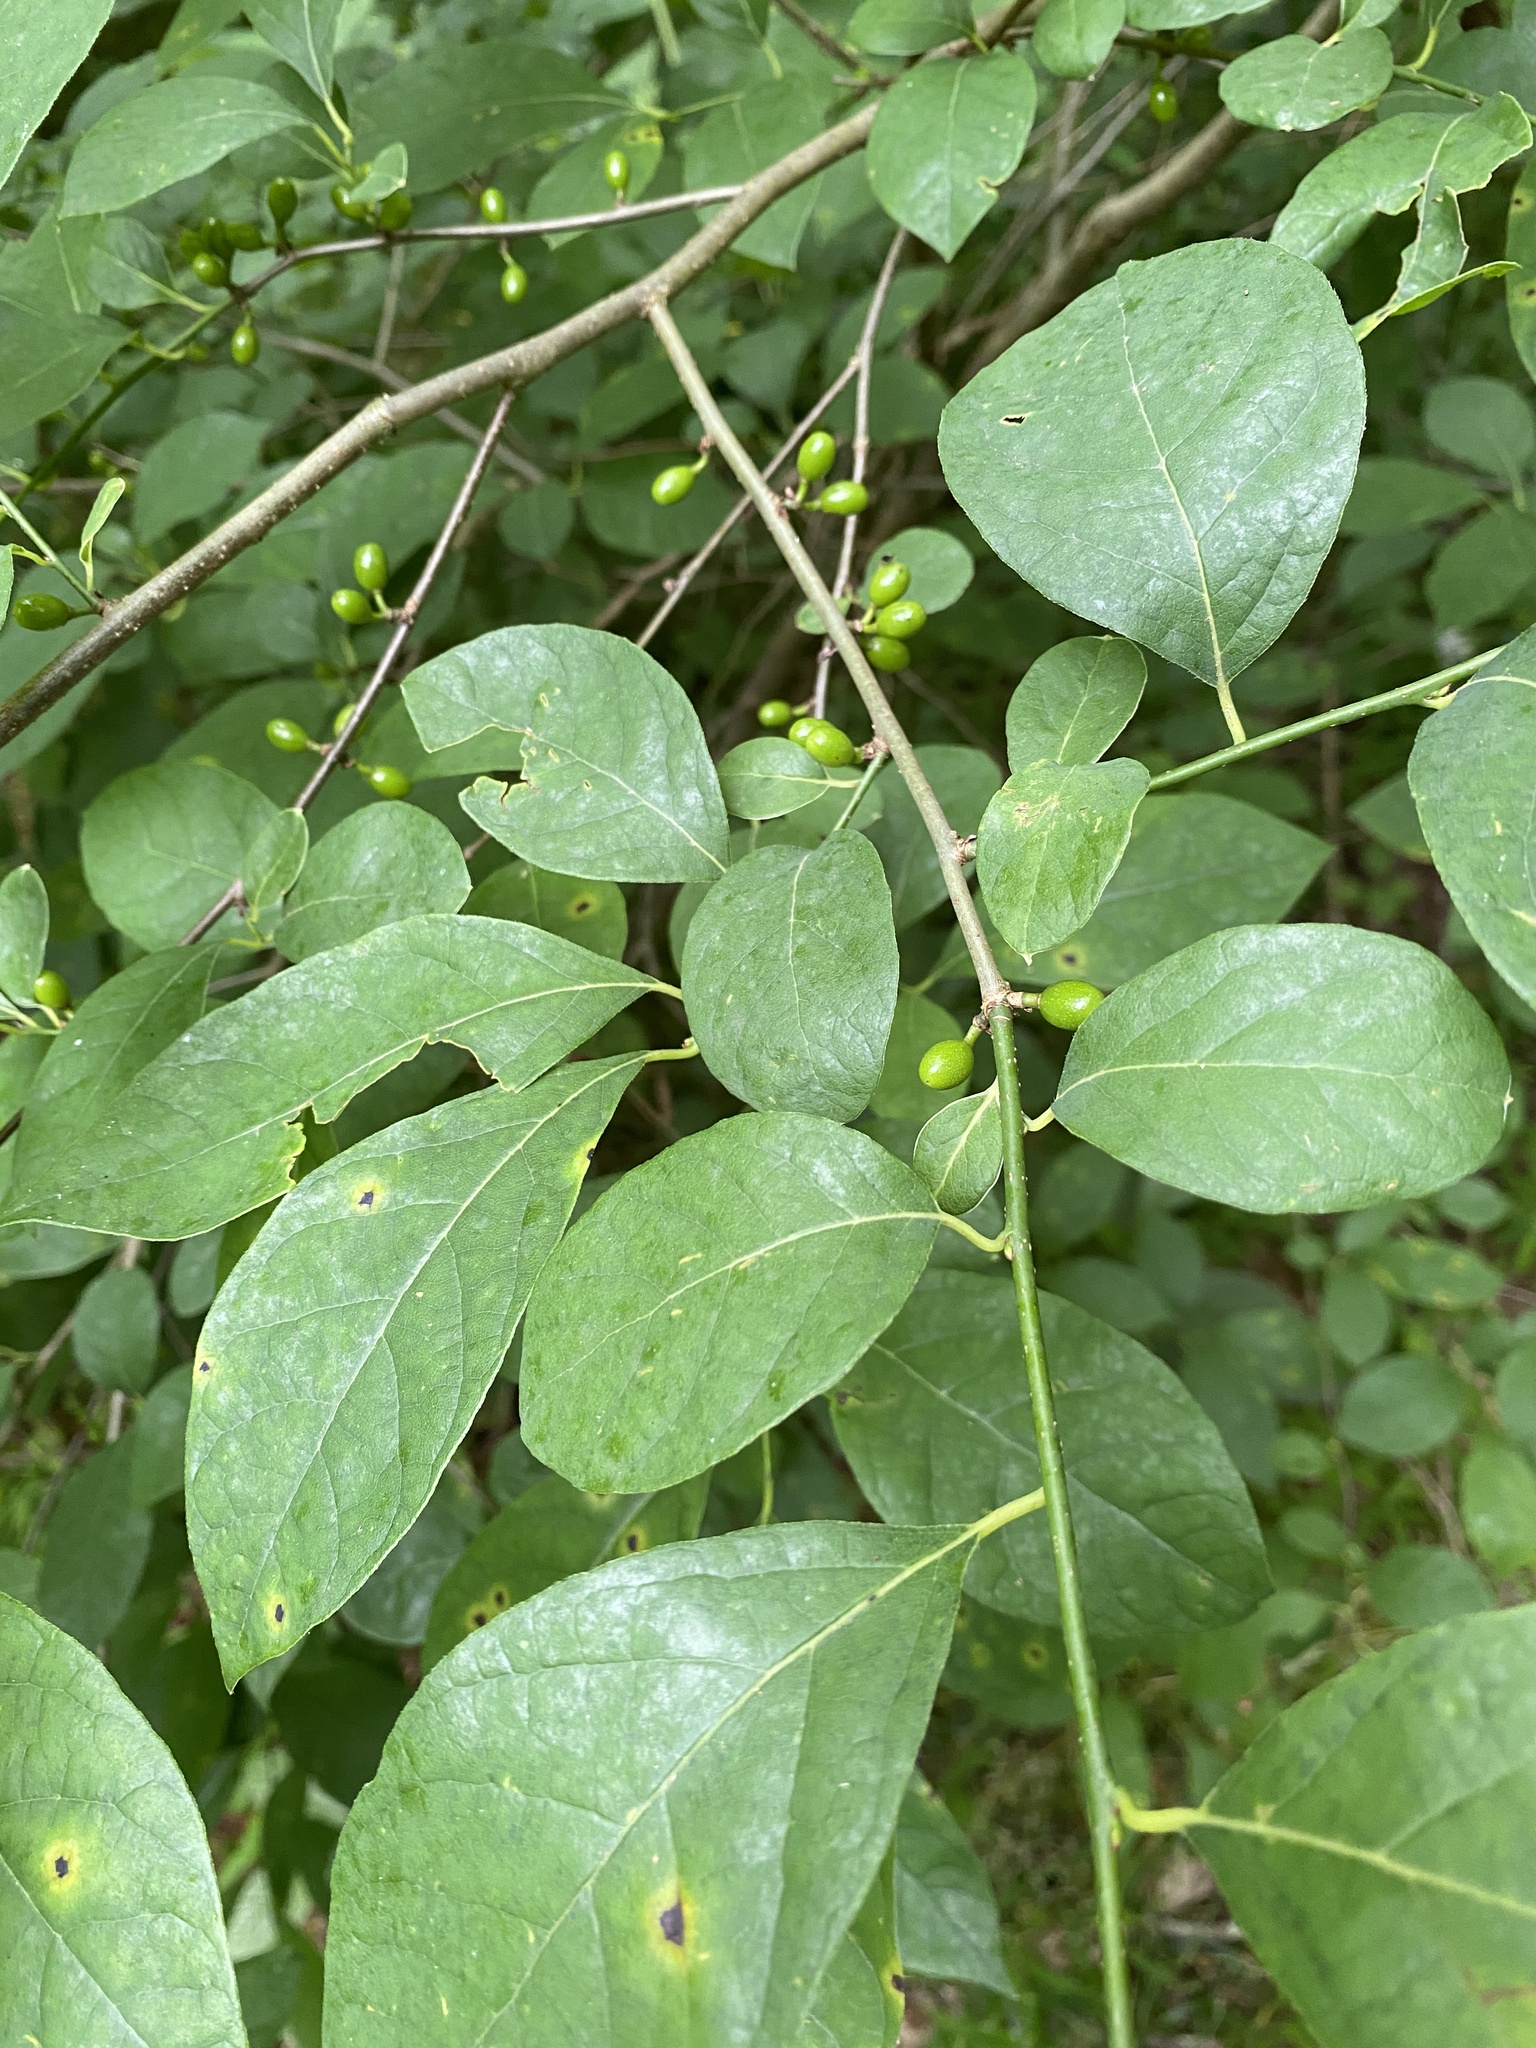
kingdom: Plantae
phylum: Tracheophyta
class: Magnoliopsida
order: Laurales
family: Lauraceae
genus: Lindera
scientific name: Lindera benzoin
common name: Spicebush
